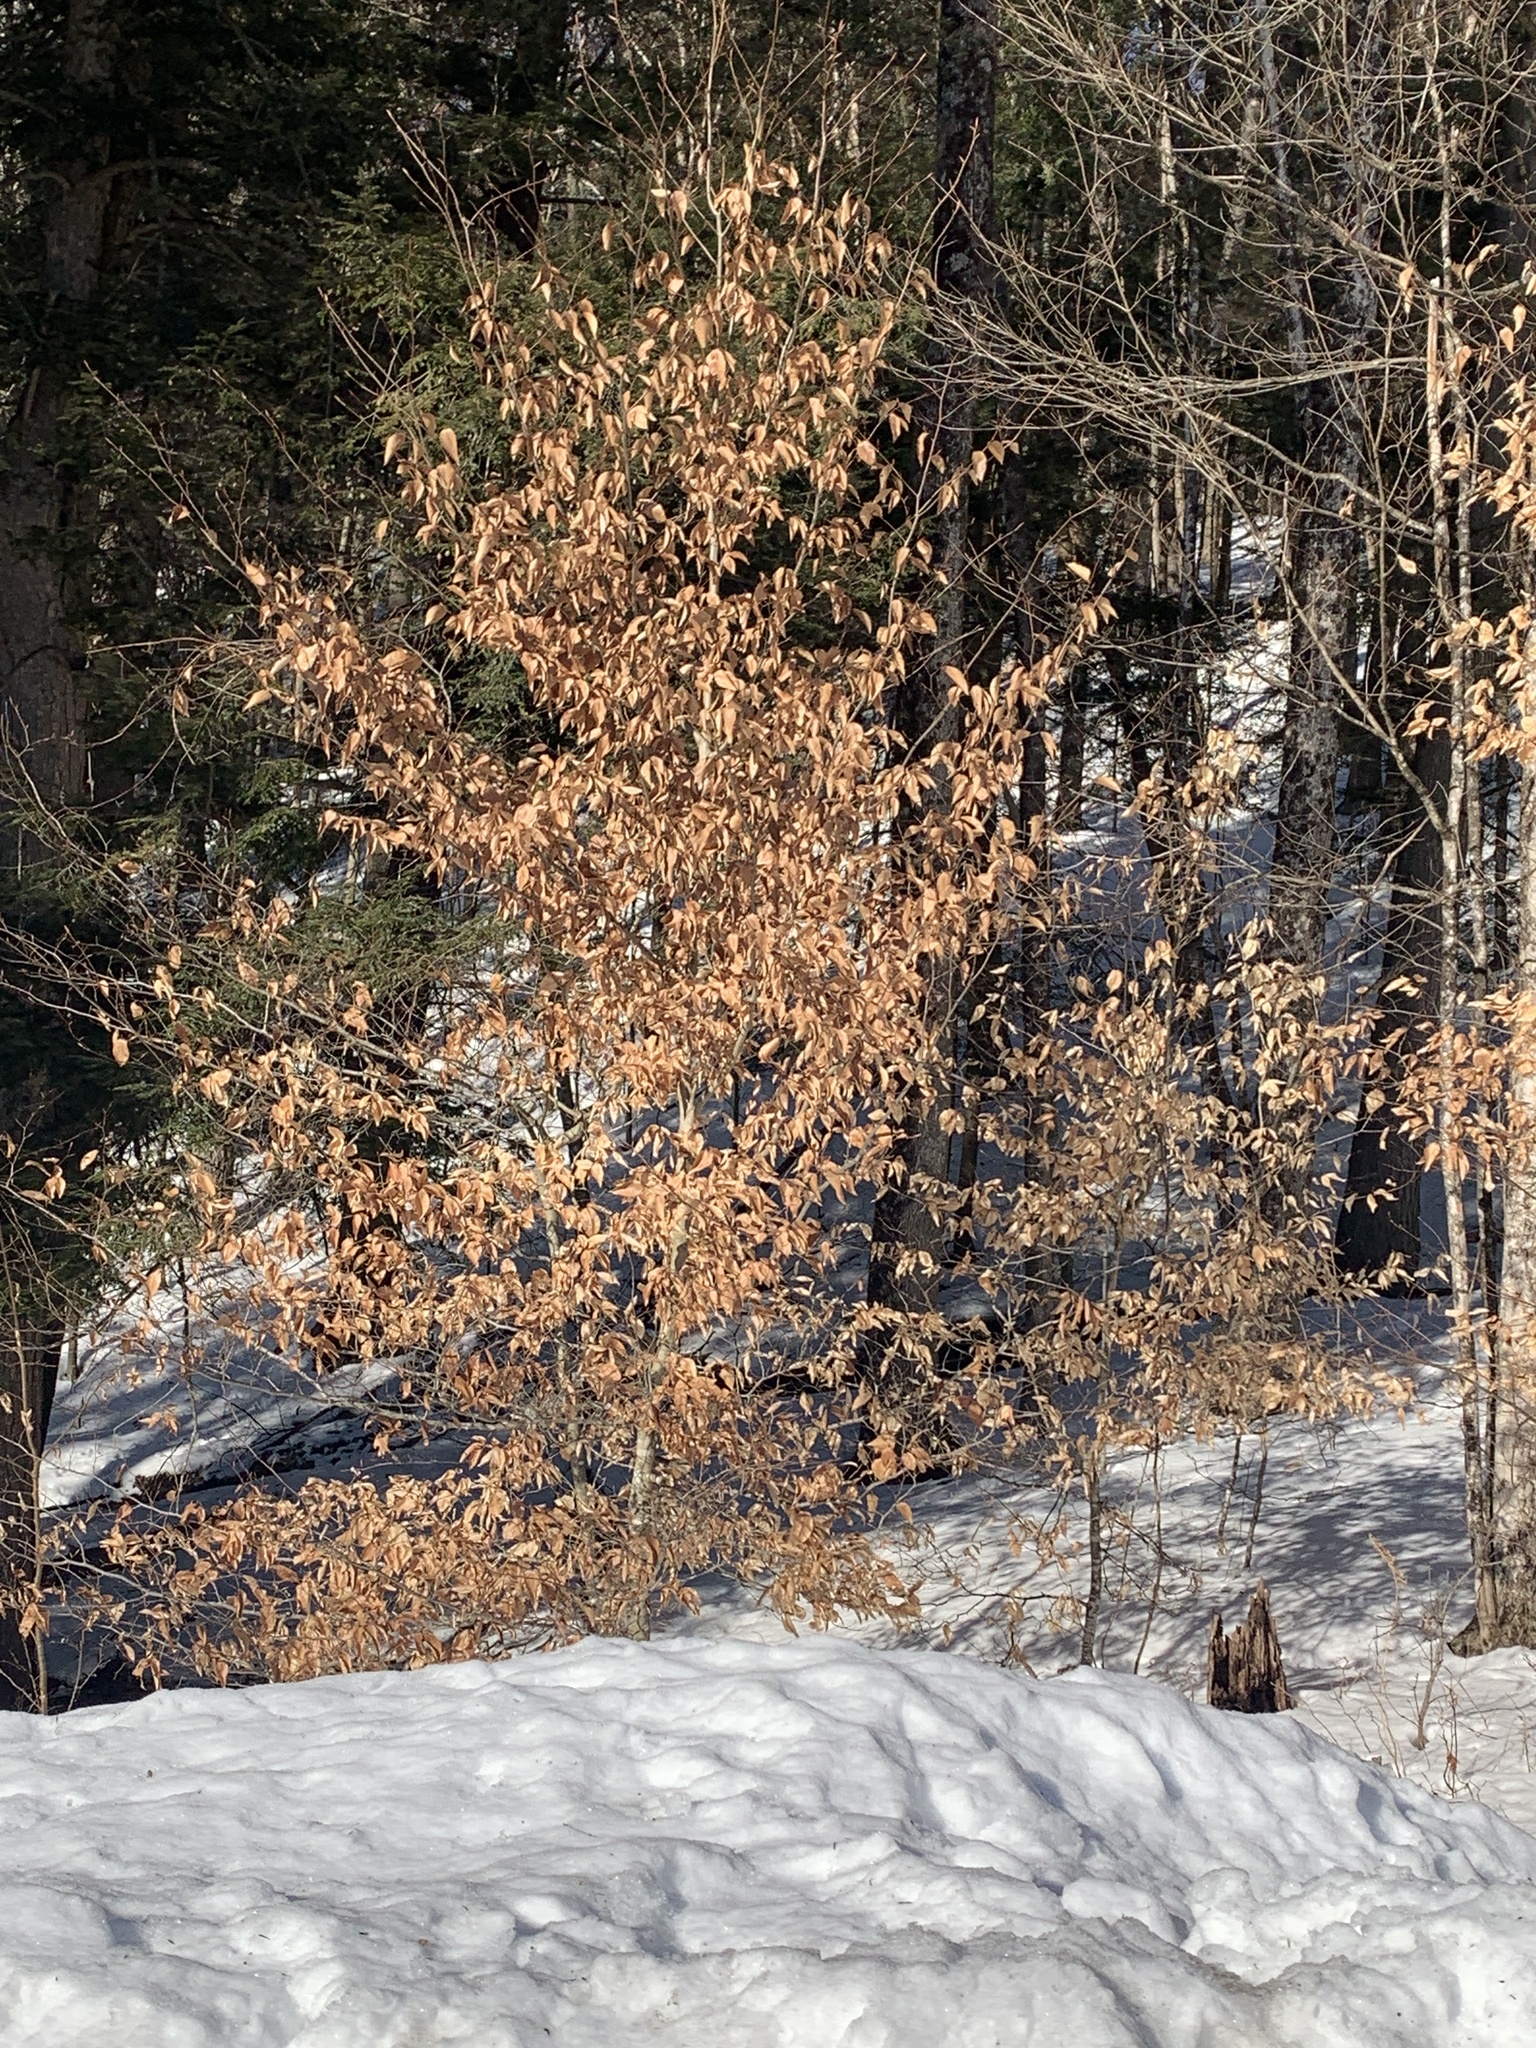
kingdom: Plantae
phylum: Tracheophyta
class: Magnoliopsida
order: Fagales
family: Fagaceae
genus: Fagus
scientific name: Fagus grandifolia
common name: American beech
